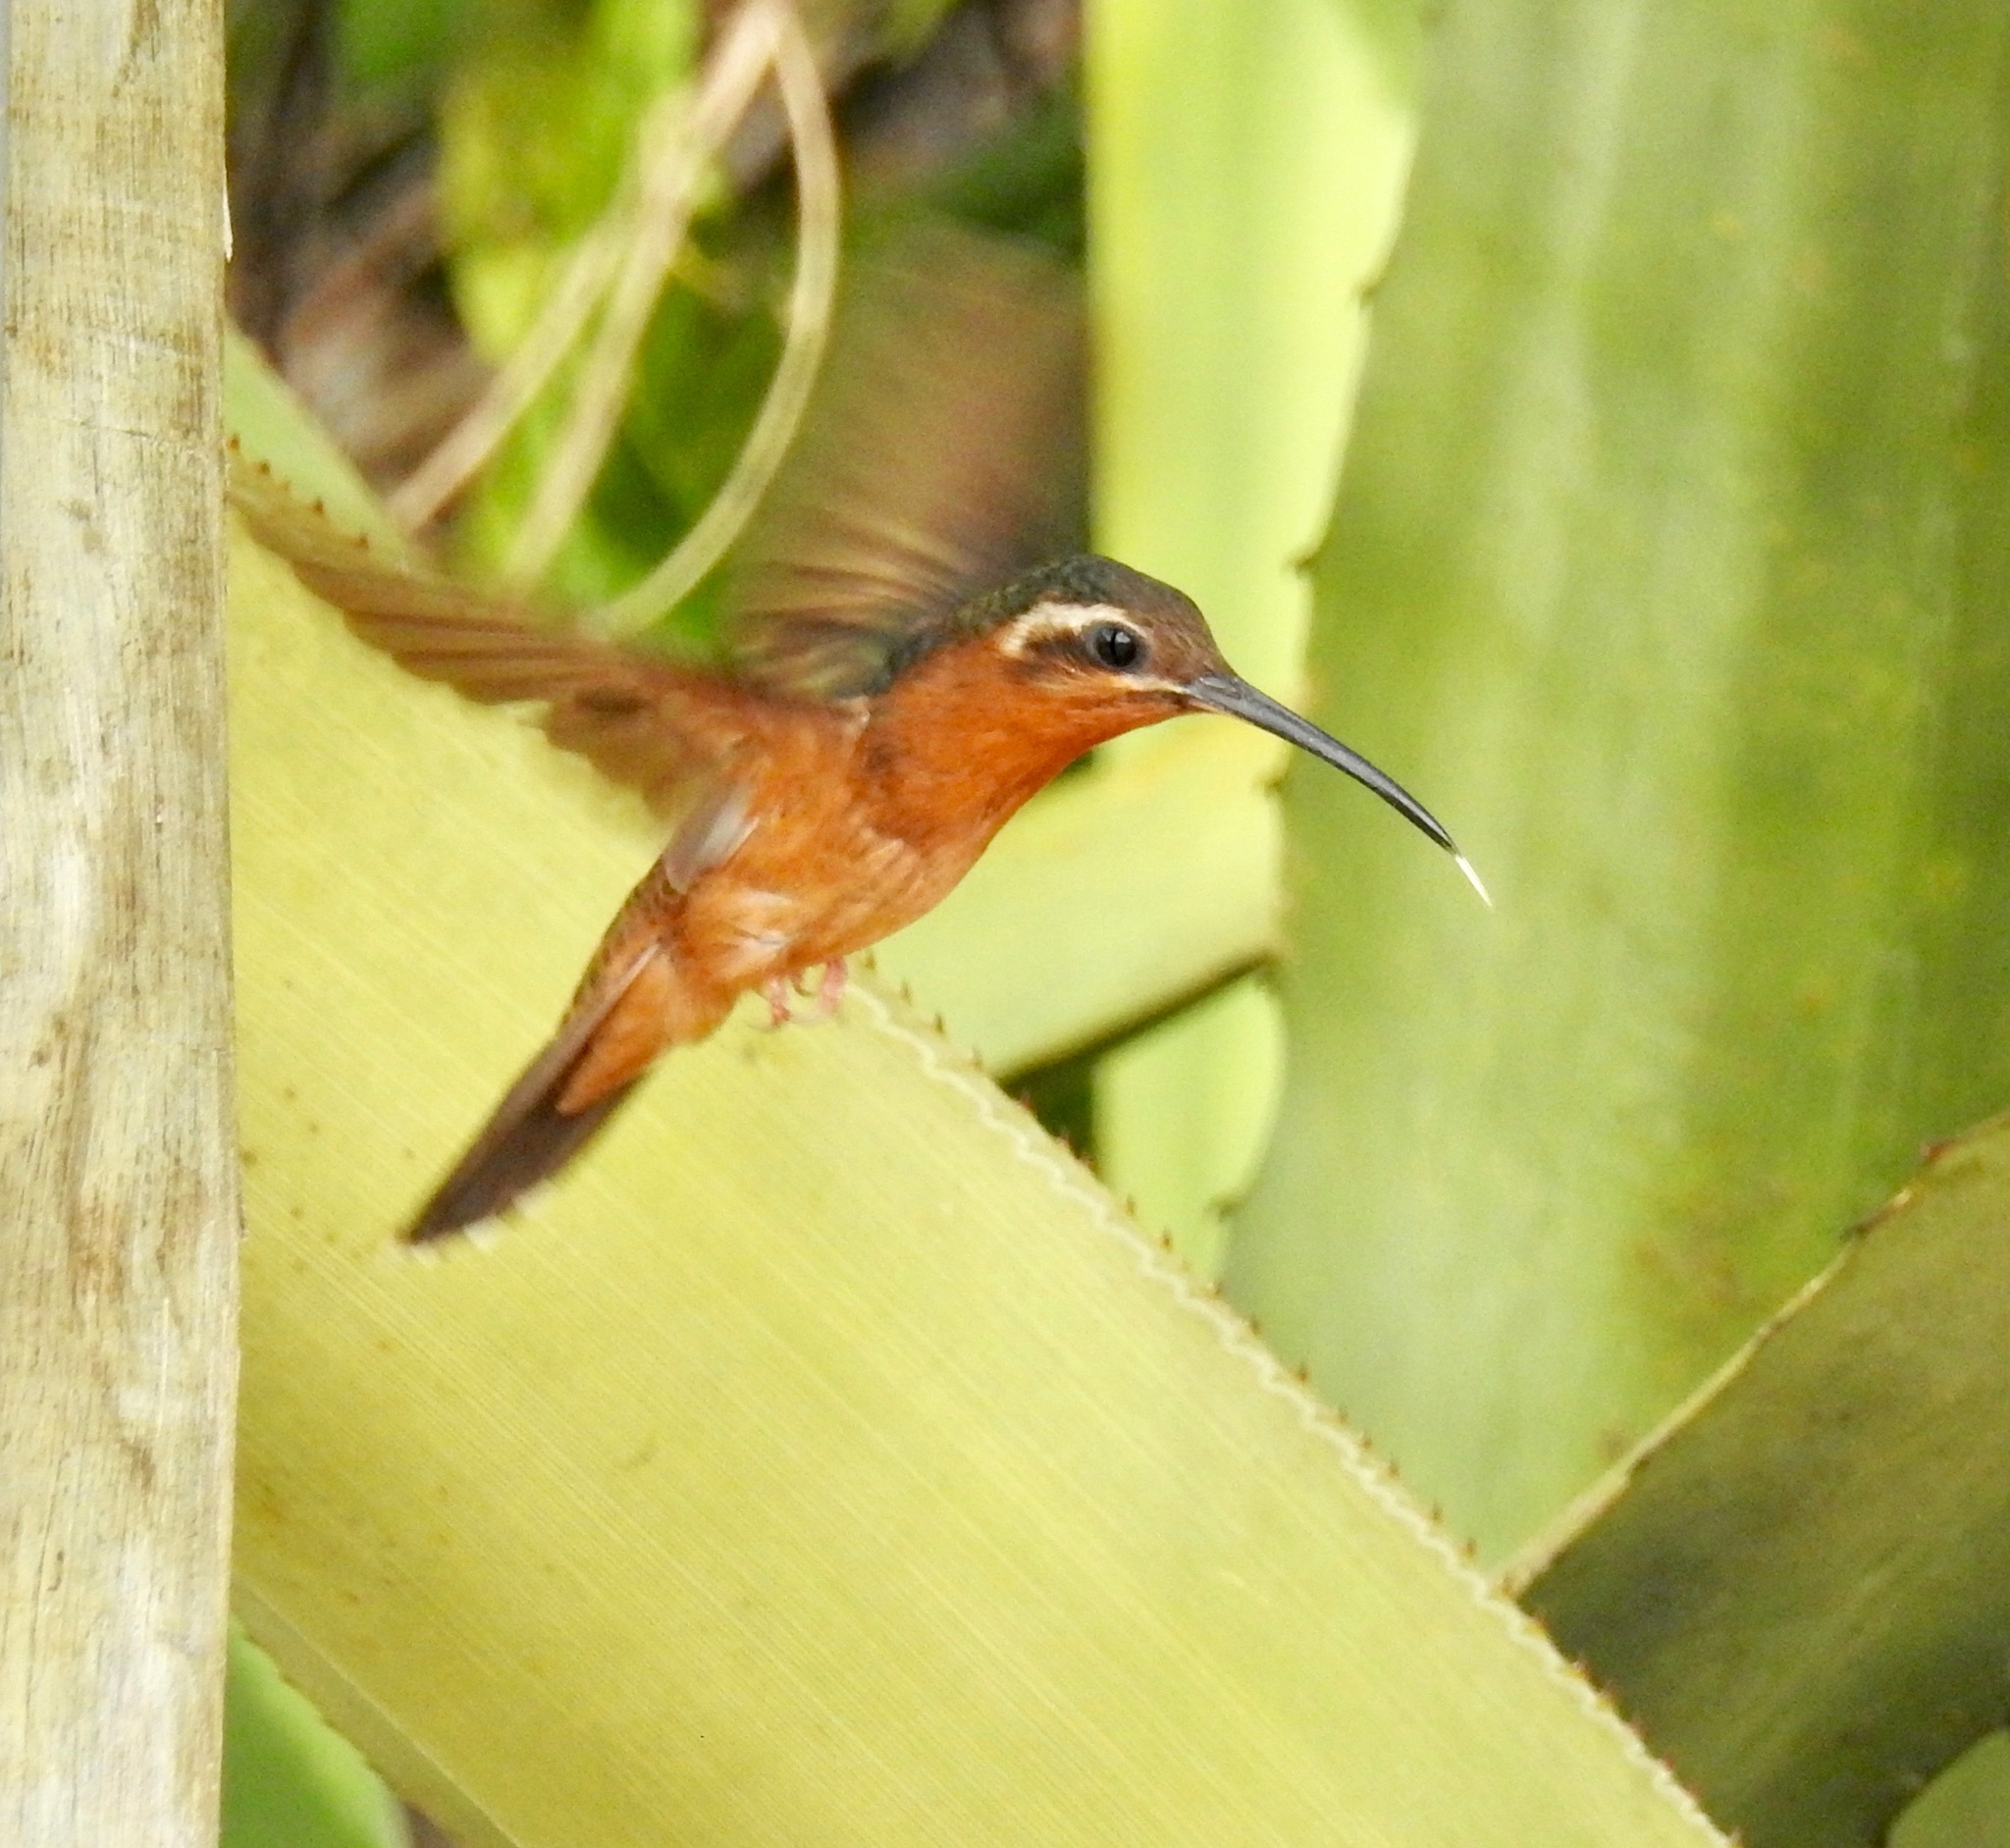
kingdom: Animalia
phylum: Chordata
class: Aves
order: Apodiformes
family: Trochilidae
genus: Glaucis
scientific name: Glaucis dohrnii
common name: Hook-billed hermit
